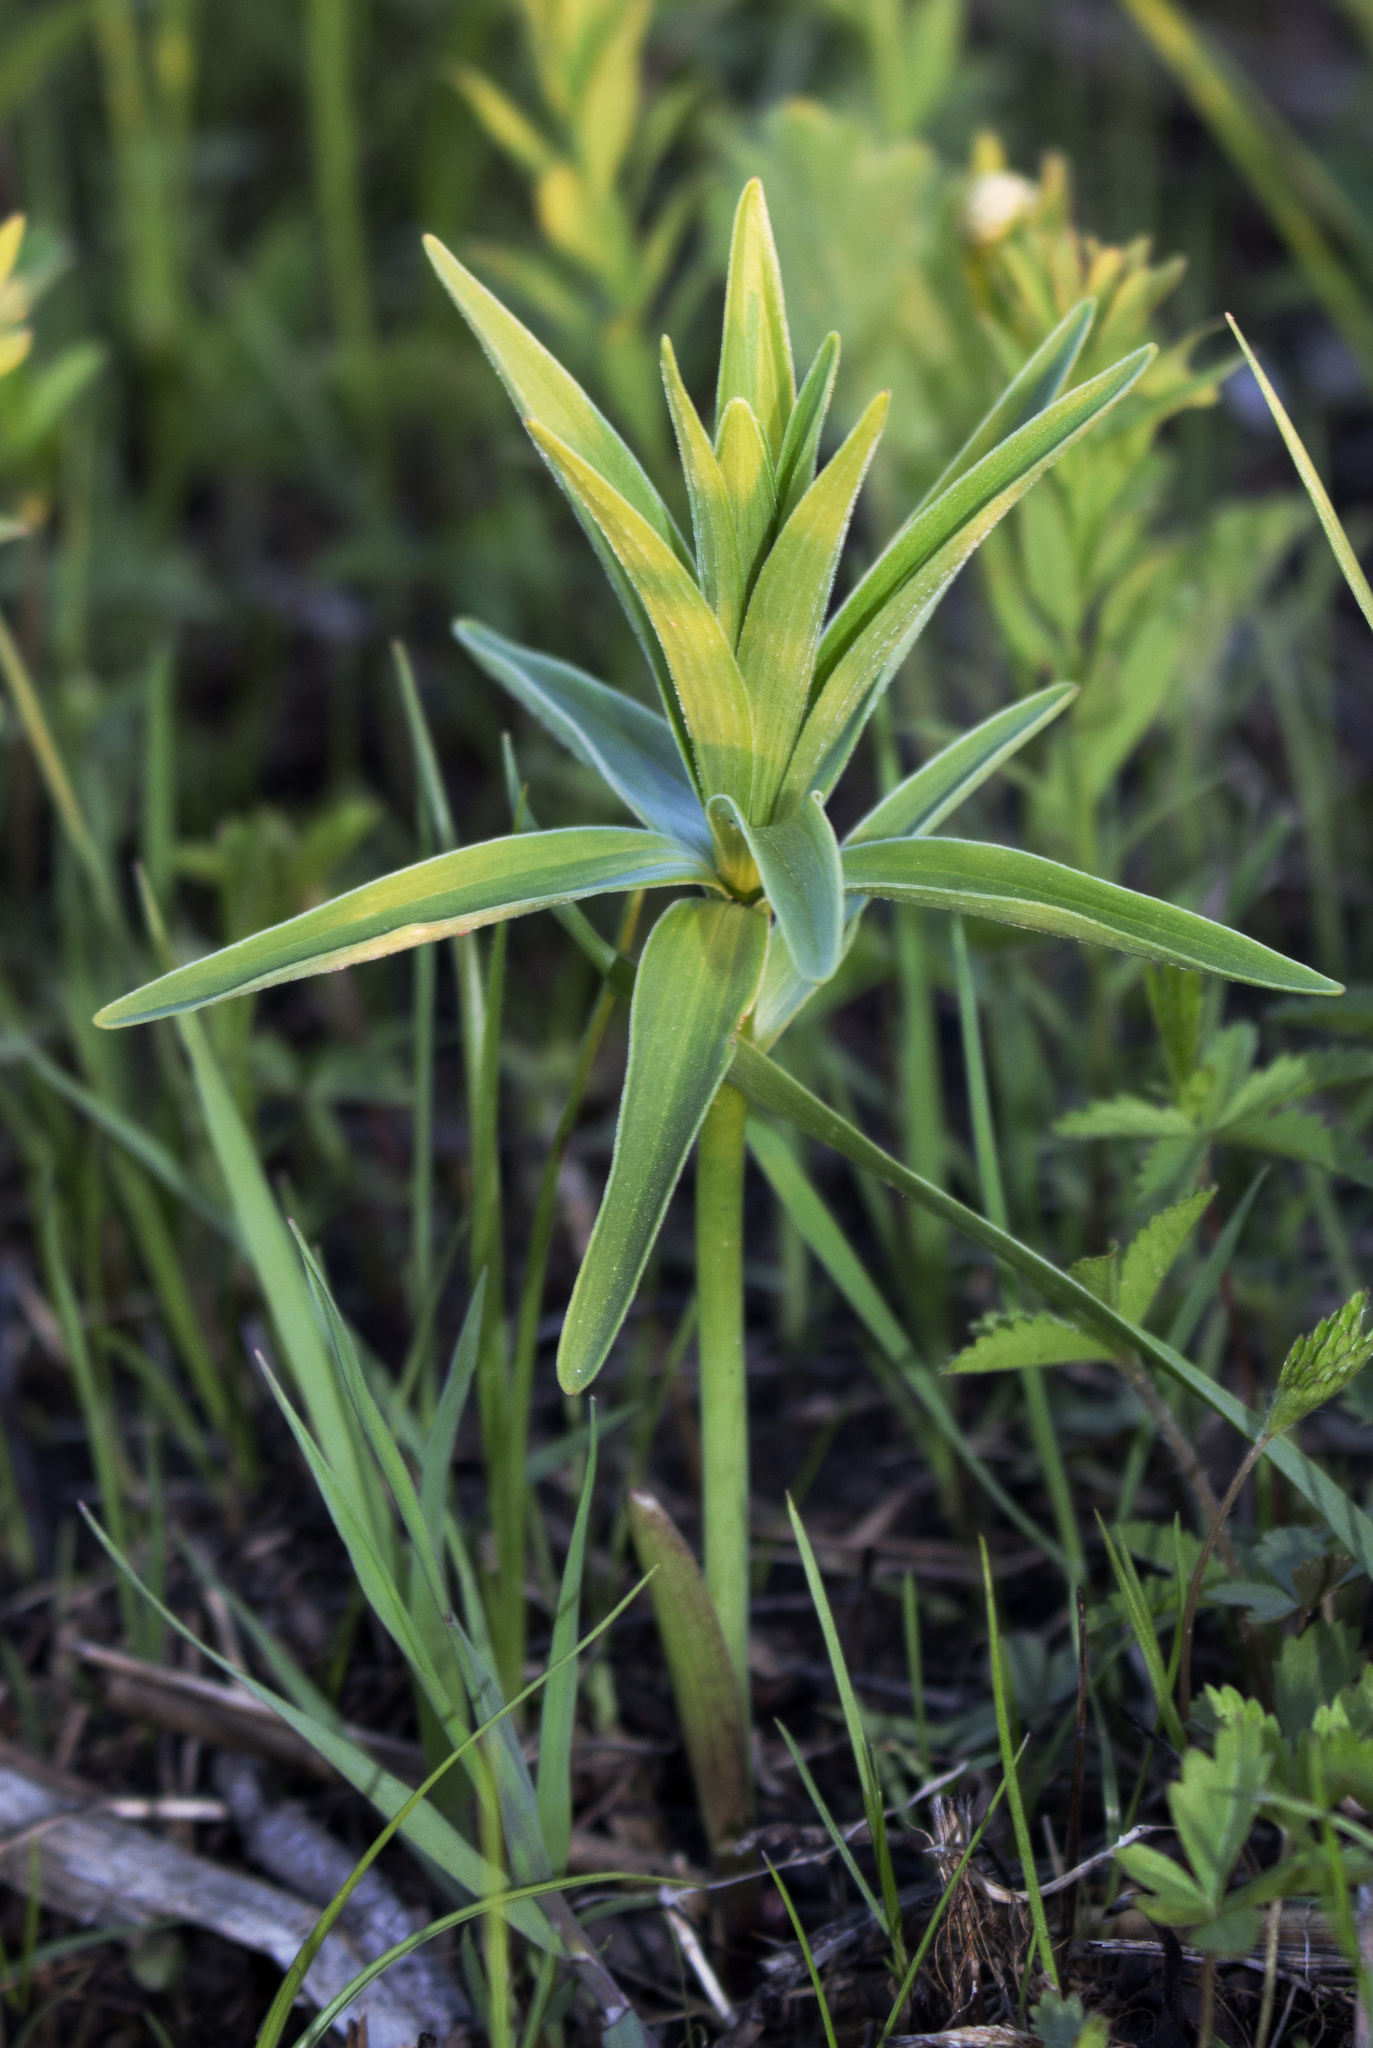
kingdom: Plantae
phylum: Tracheophyta
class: Liliopsida
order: Liliales
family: Liliaceae
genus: Lilium
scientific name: Lilium michiganense
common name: Michigan lily
